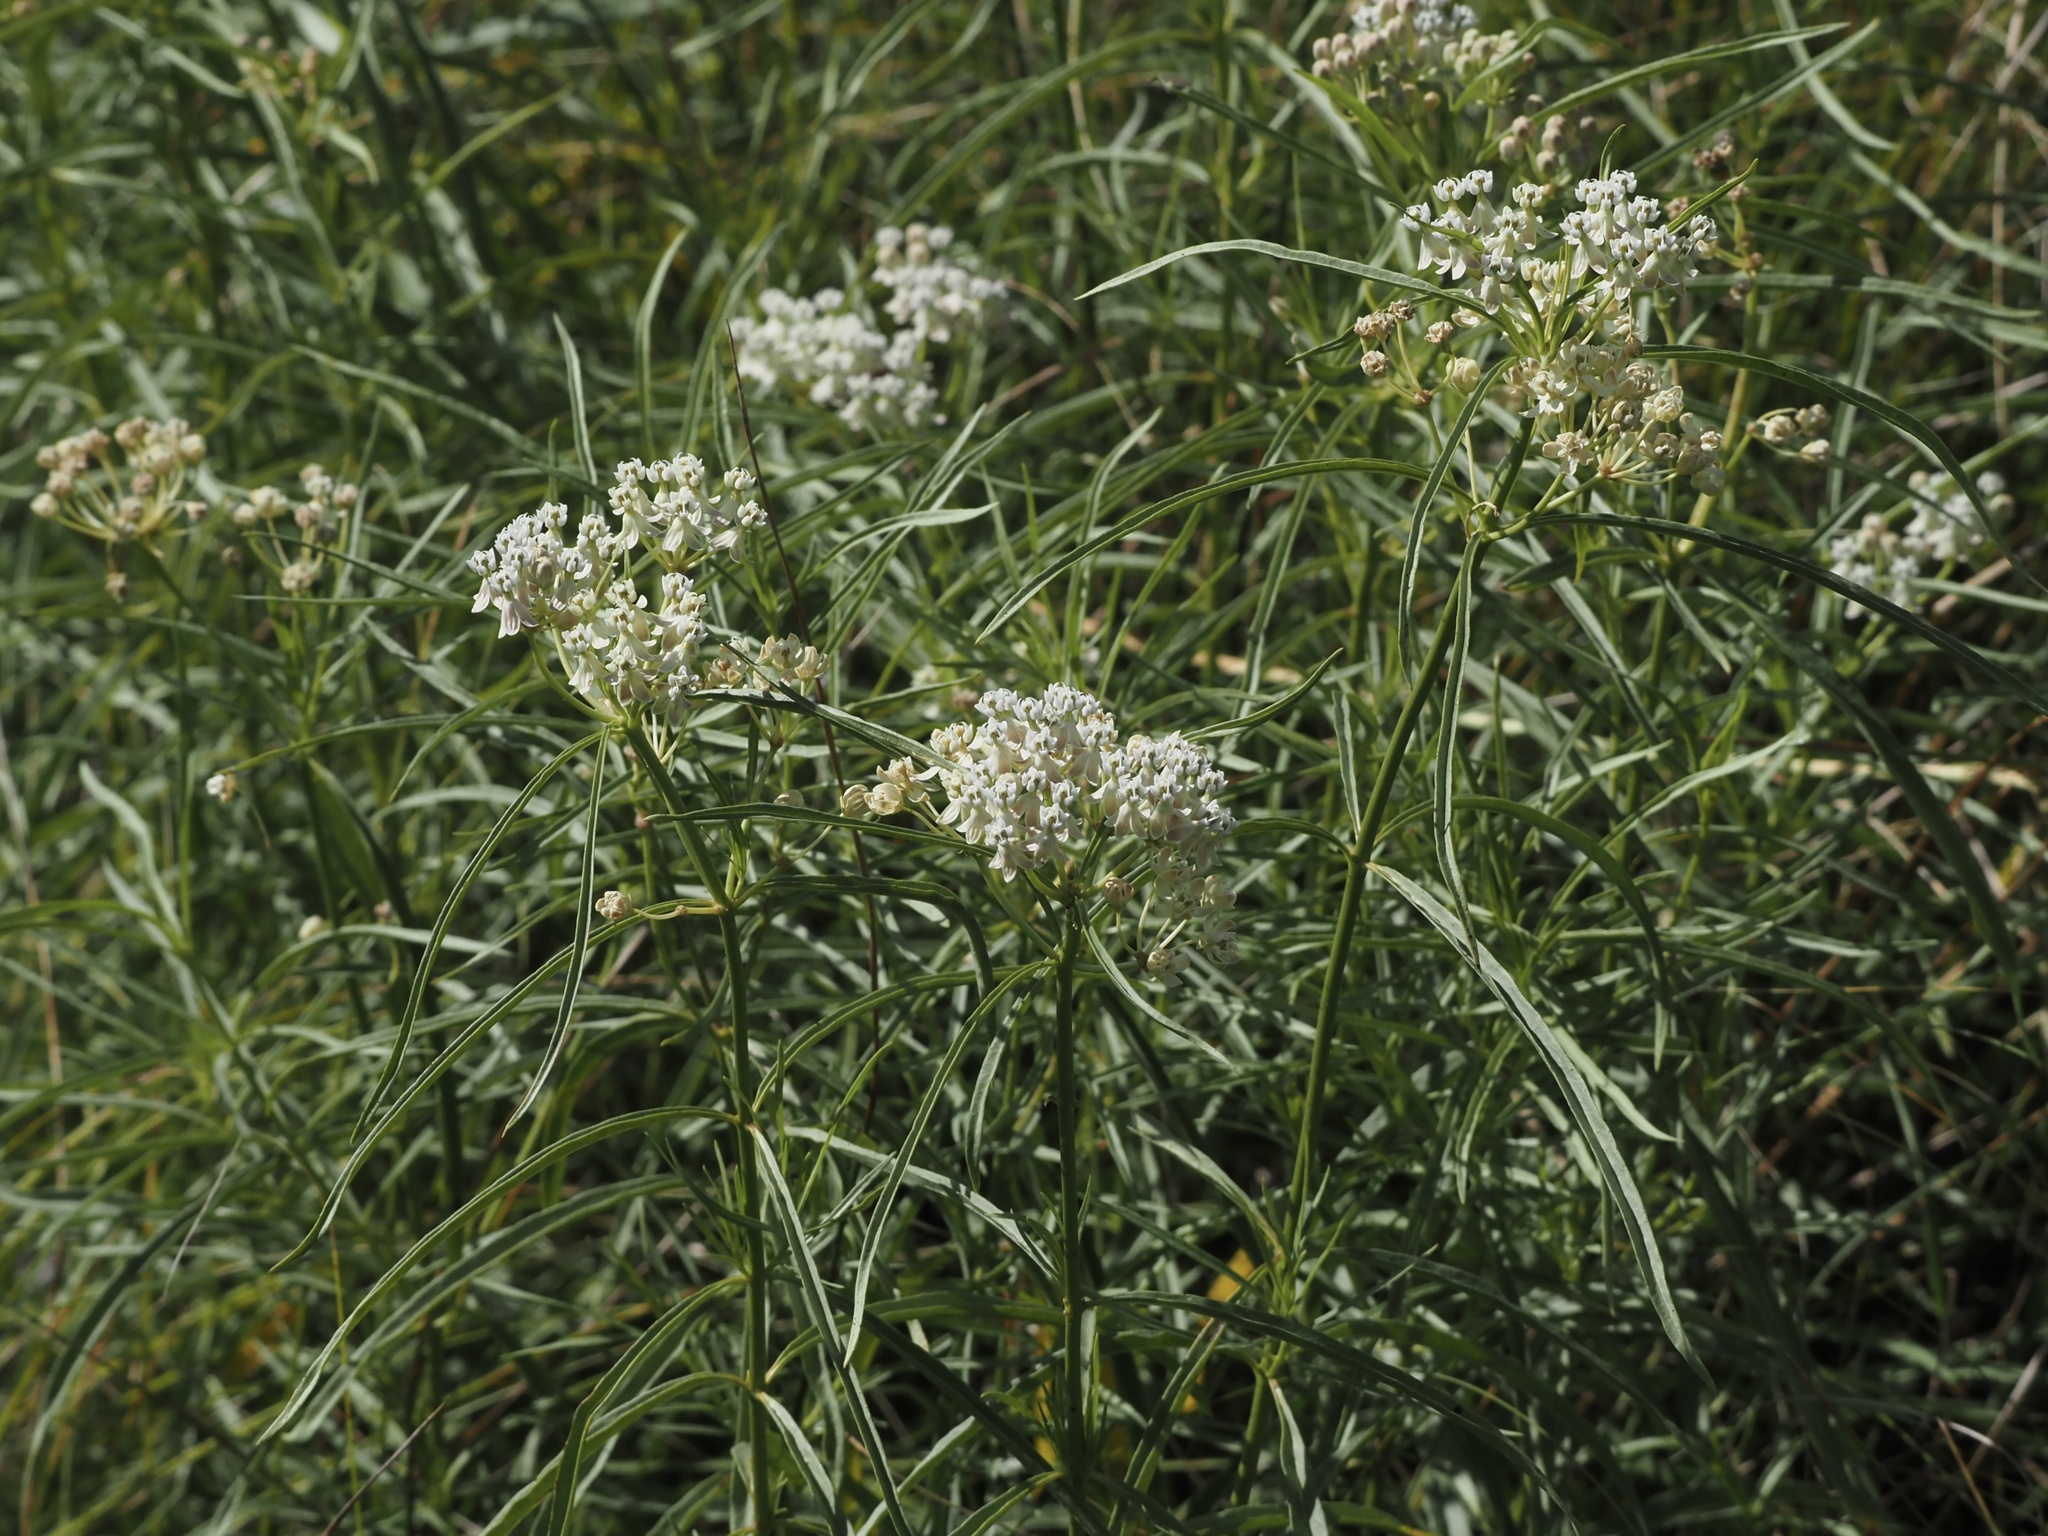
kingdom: Plantae
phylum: Tracheophyta
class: Magnoliopsida
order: Gentianales
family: Apocynaceae
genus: Asclepias
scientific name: Asclepias fascicularis
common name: Mexican milkweed
